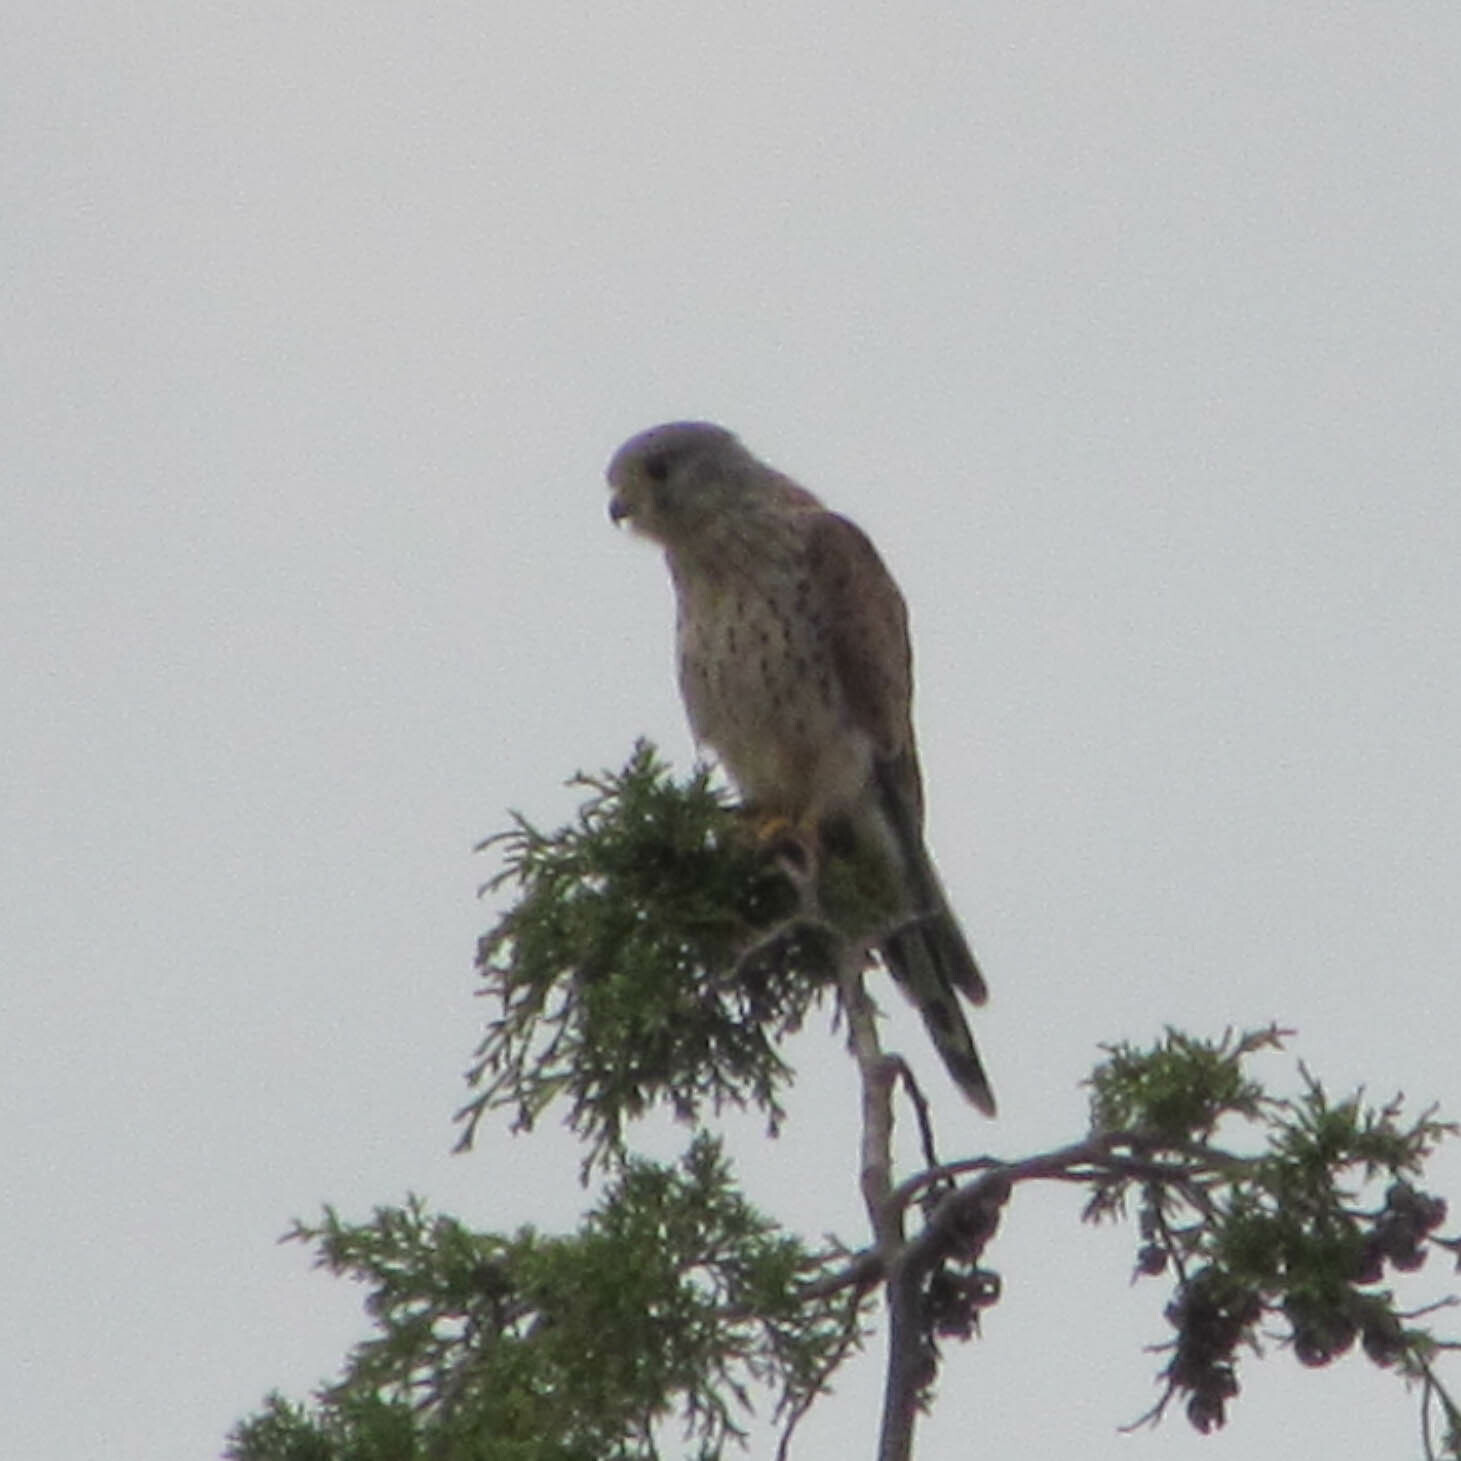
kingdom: Animalia
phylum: Chordata
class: Aves
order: Falconiformes
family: Falconidae
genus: Falco
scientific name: Falco tinnunculus
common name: Common kestrel
